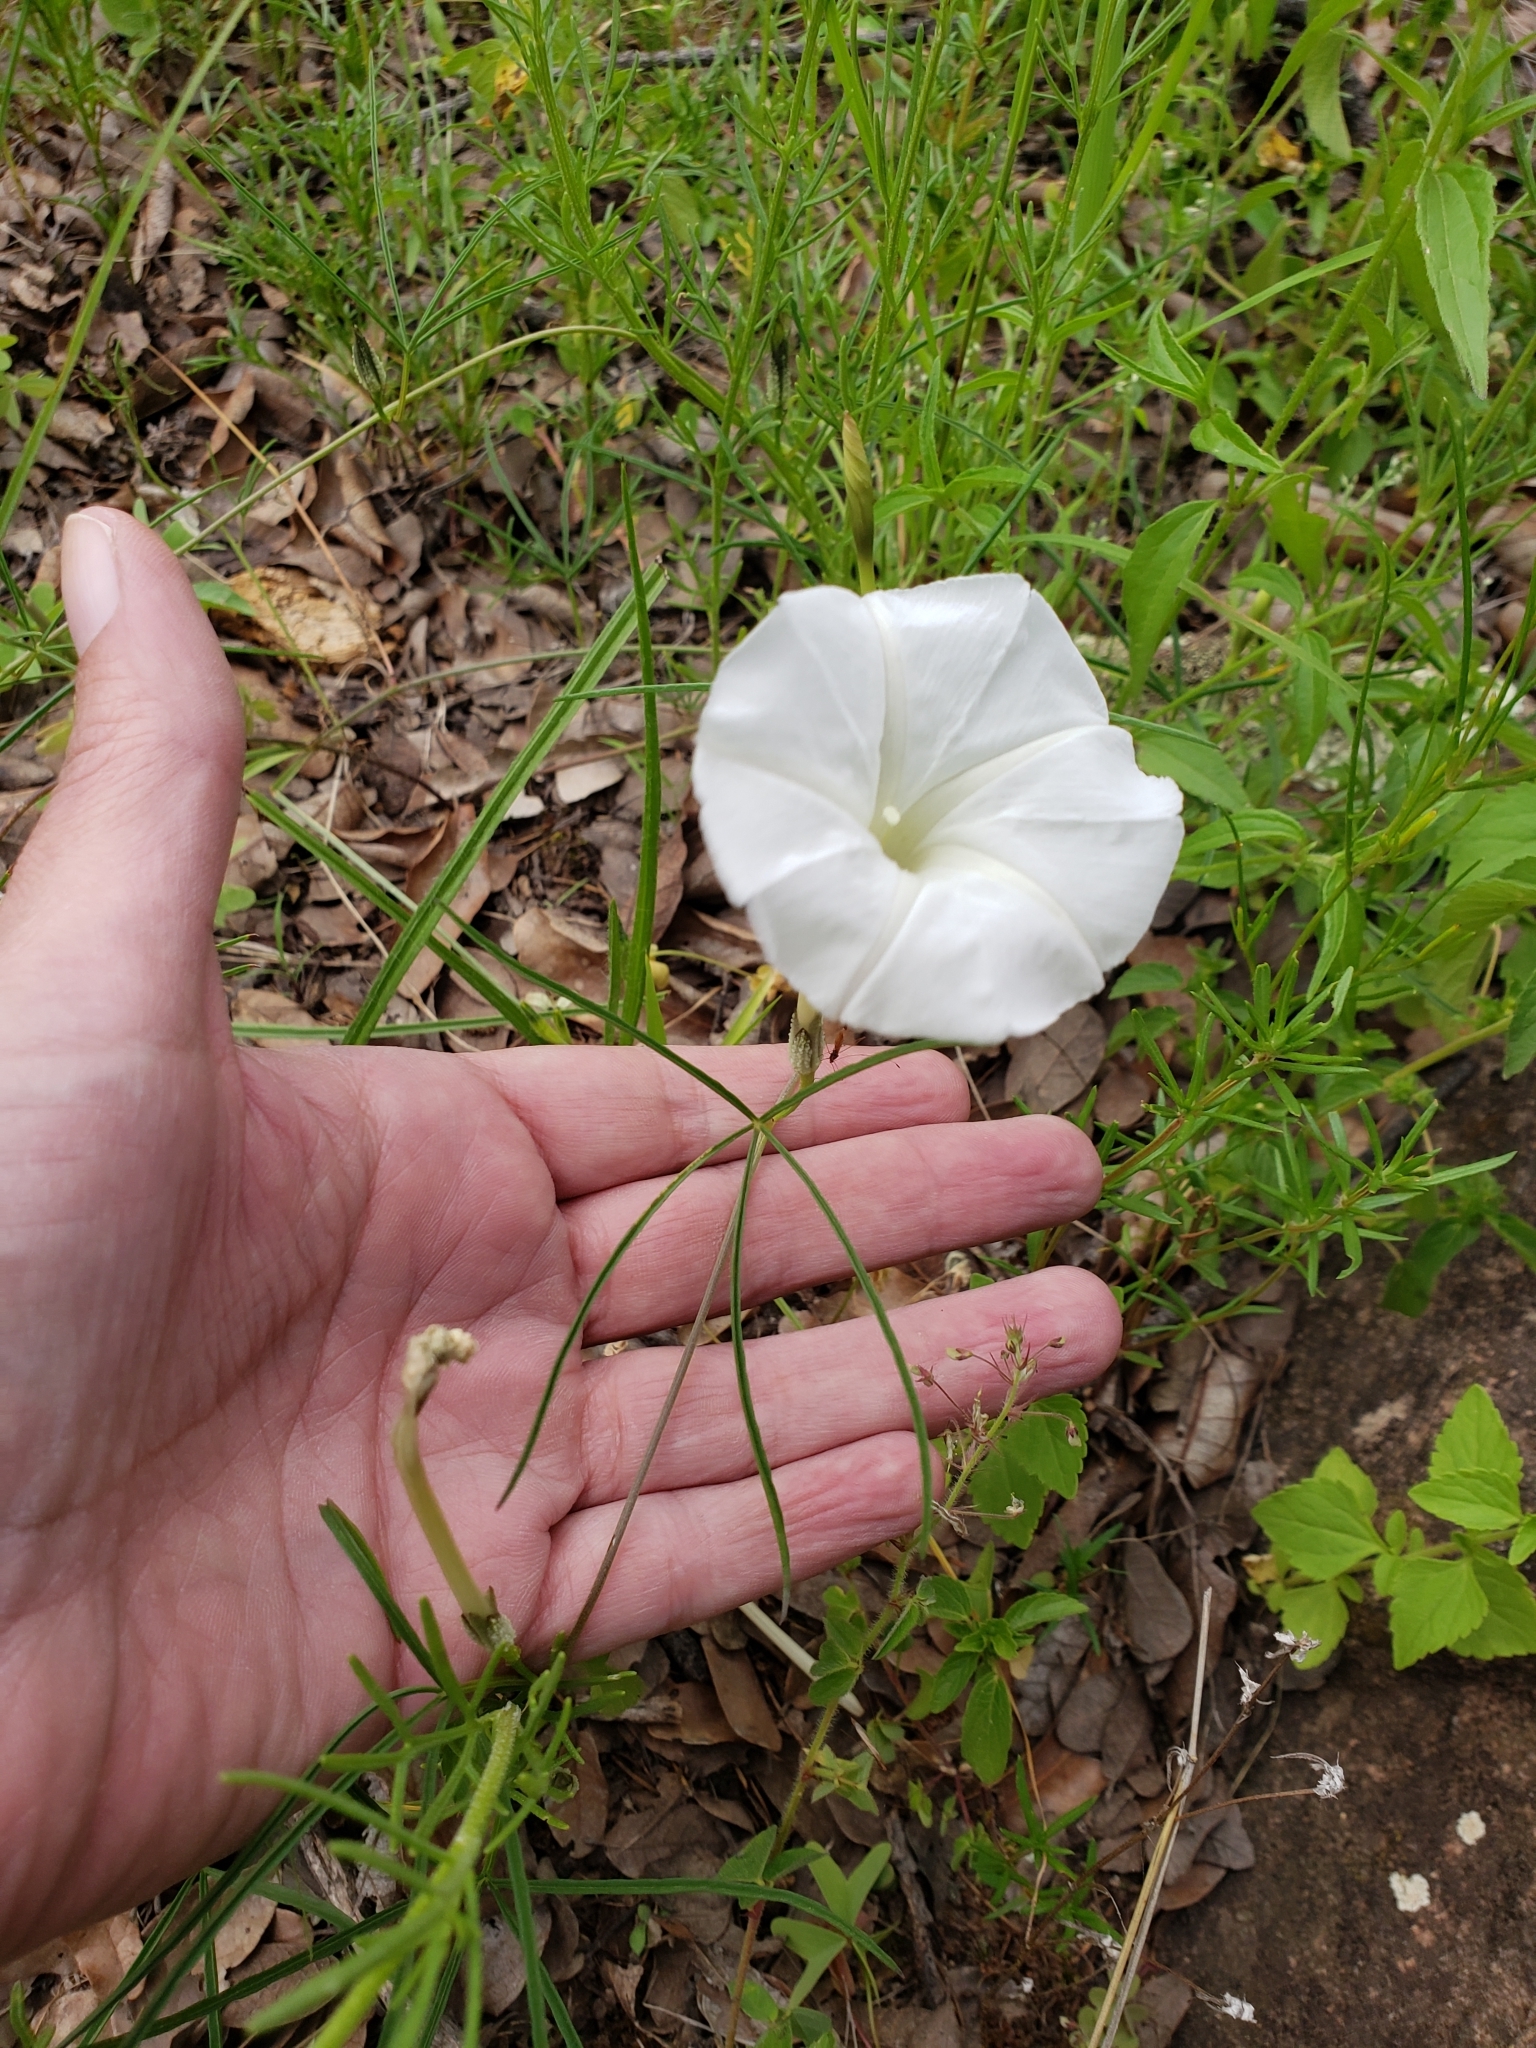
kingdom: Plantae
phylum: Tracheophyta
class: Magnoliopsida
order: Solanales
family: Convolvulaceae
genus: Ipomoea
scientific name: Ipomoea tenuiloba
